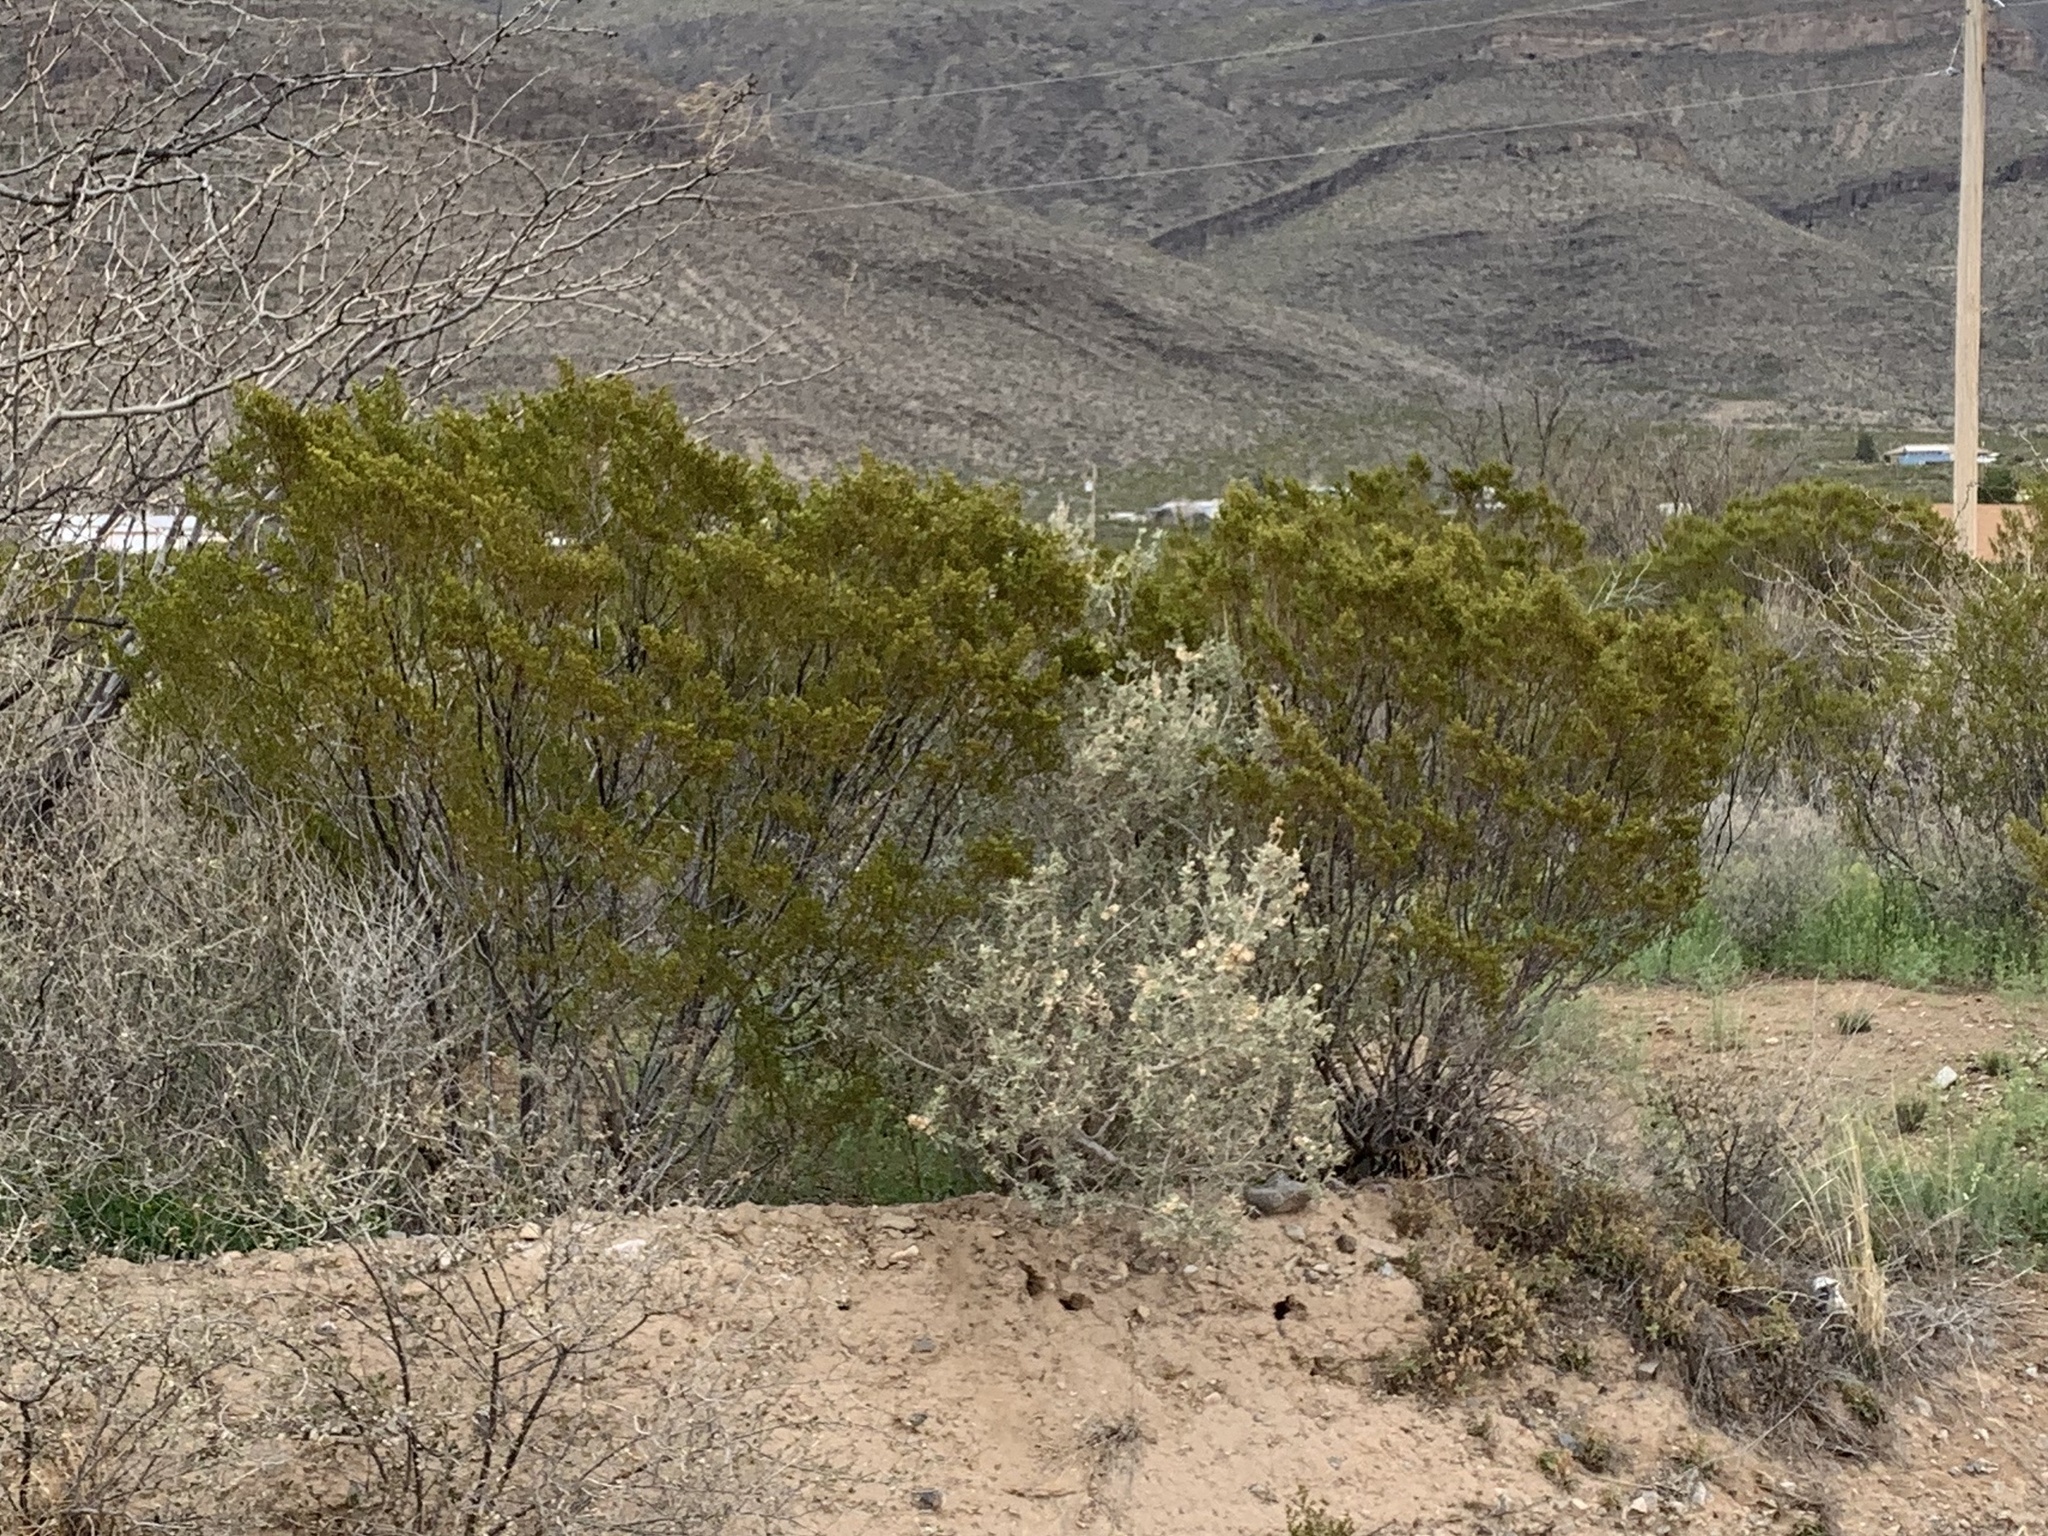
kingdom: Plantae
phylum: Tracheophyta
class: Magnoliopsida
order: Zygophyllales
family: Zygophyllaceae
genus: Larrea
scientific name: Larrea tridentata
